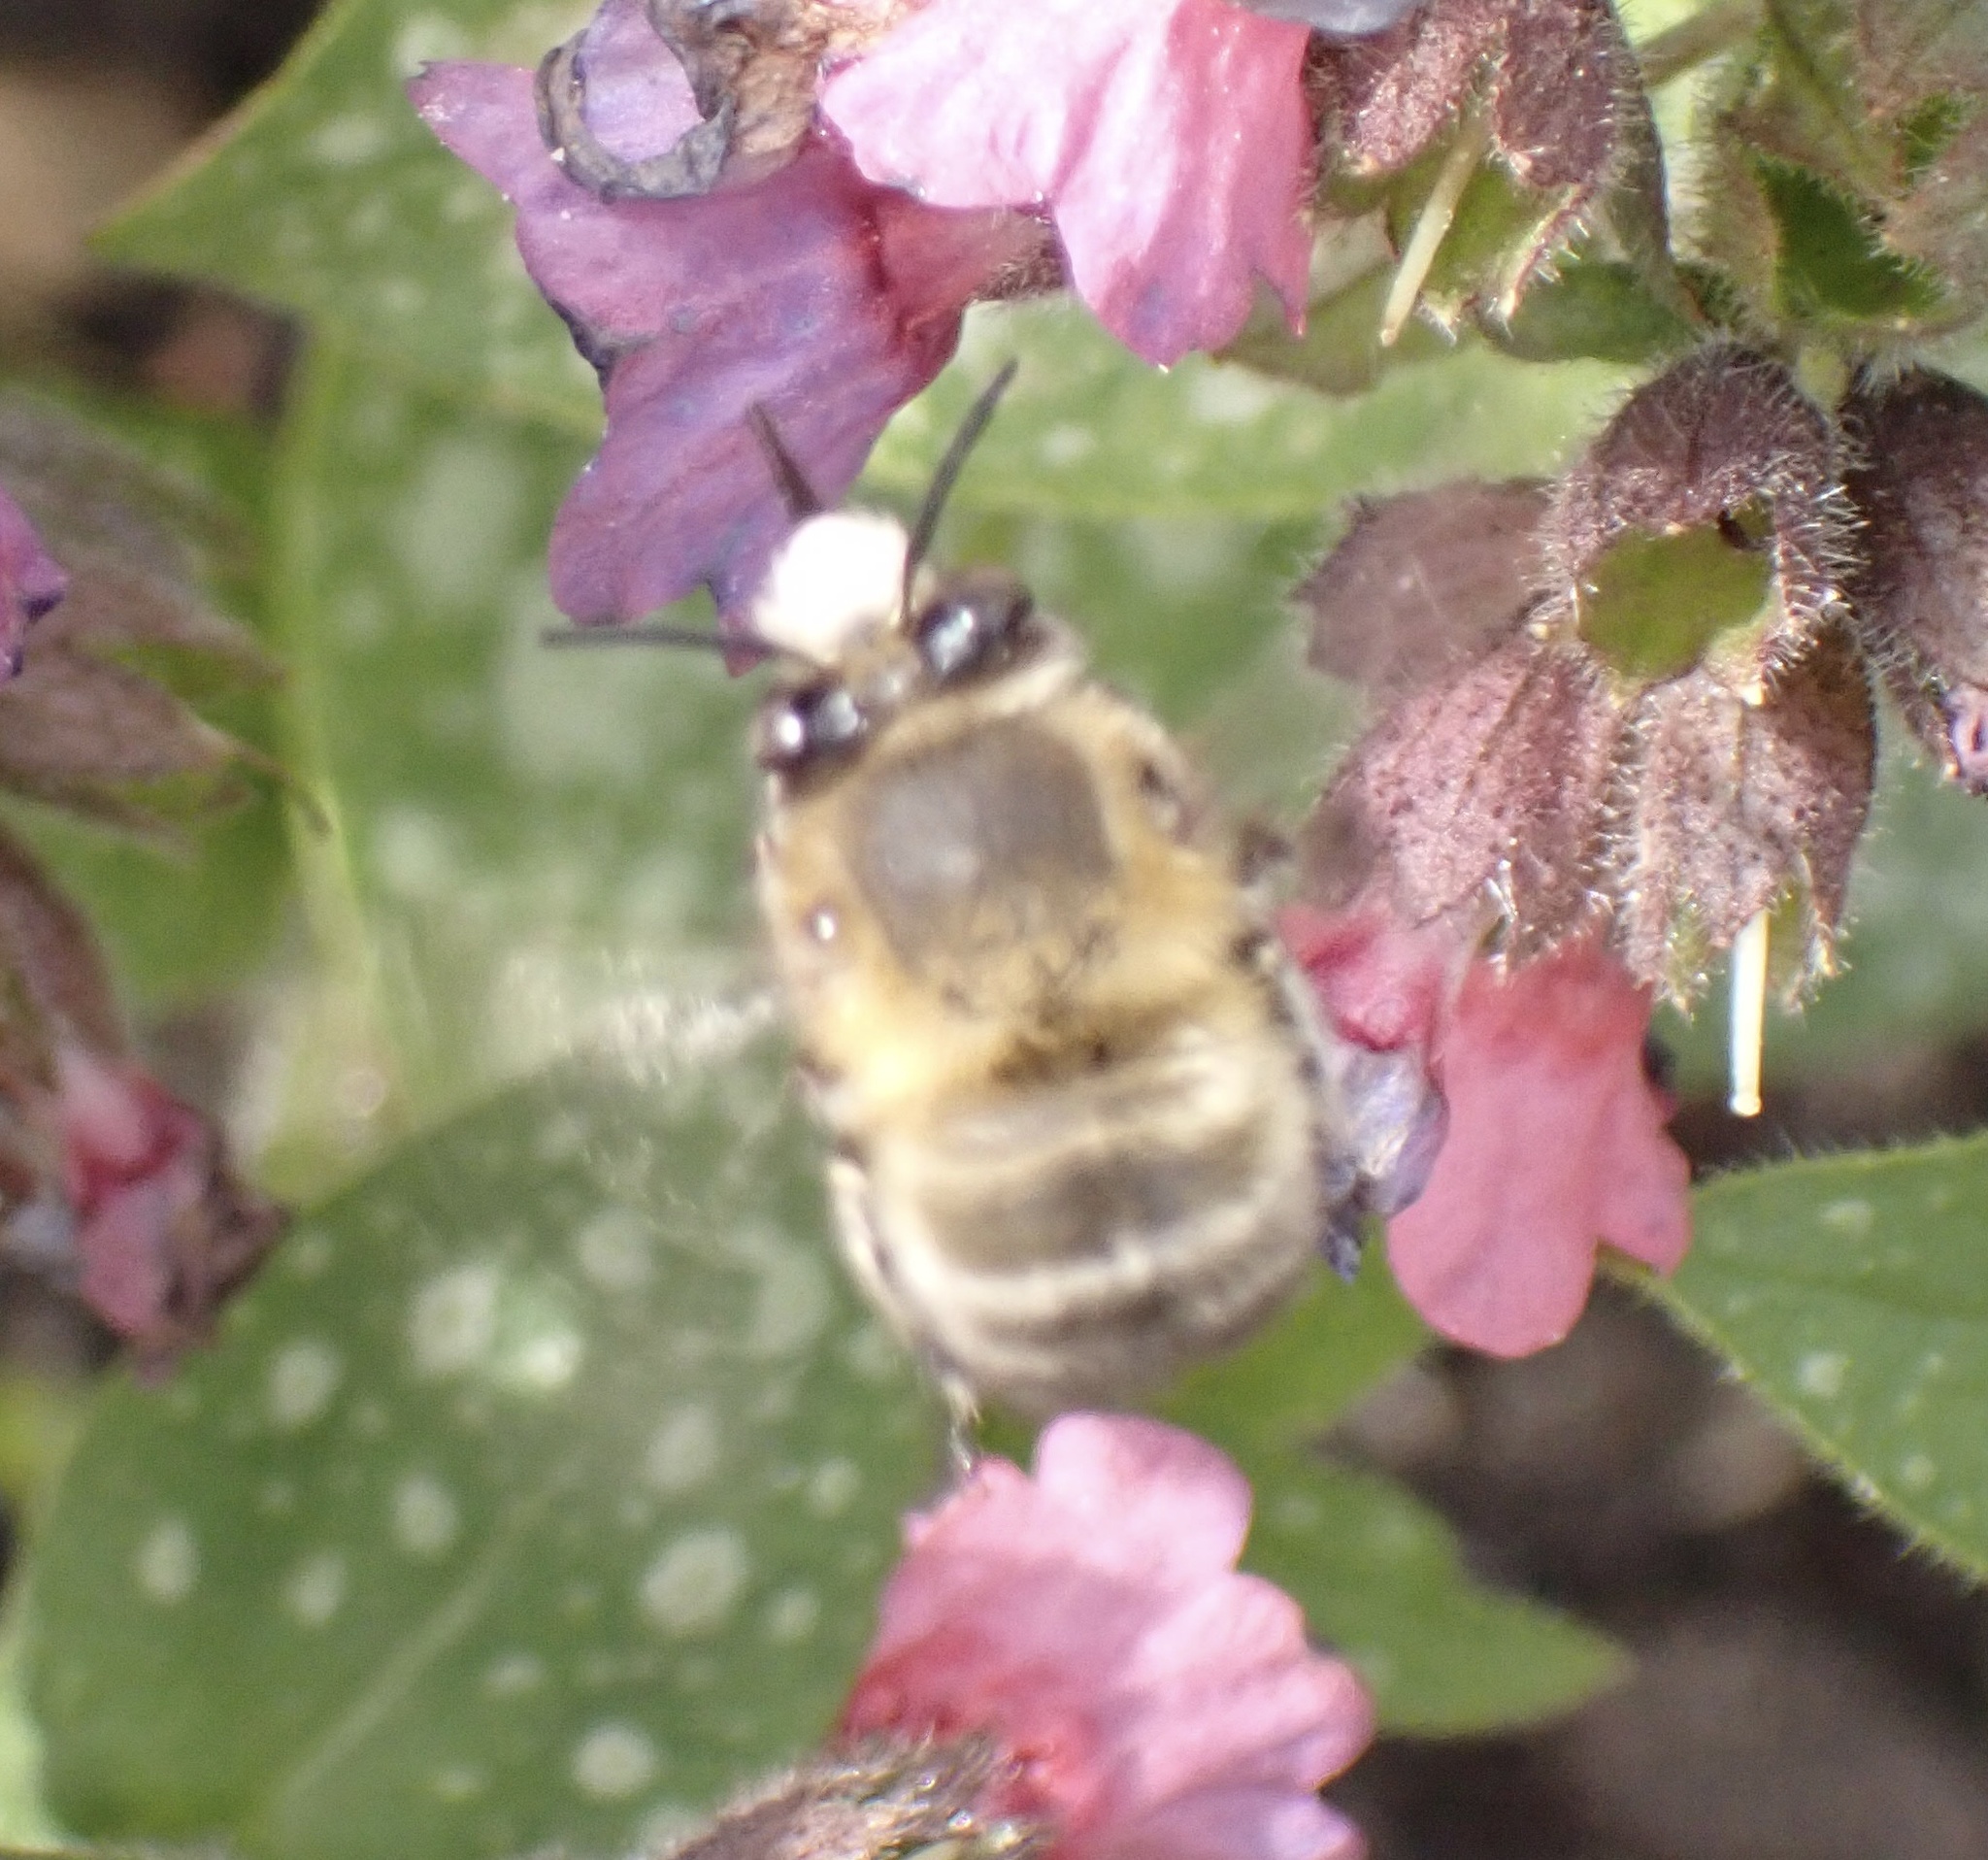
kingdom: Animalia
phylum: Arthropoda
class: Insecta
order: Hymenoptera
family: Apidae
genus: Anthophora
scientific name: Anthophora plumipes
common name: Hairy-footed flower bee
